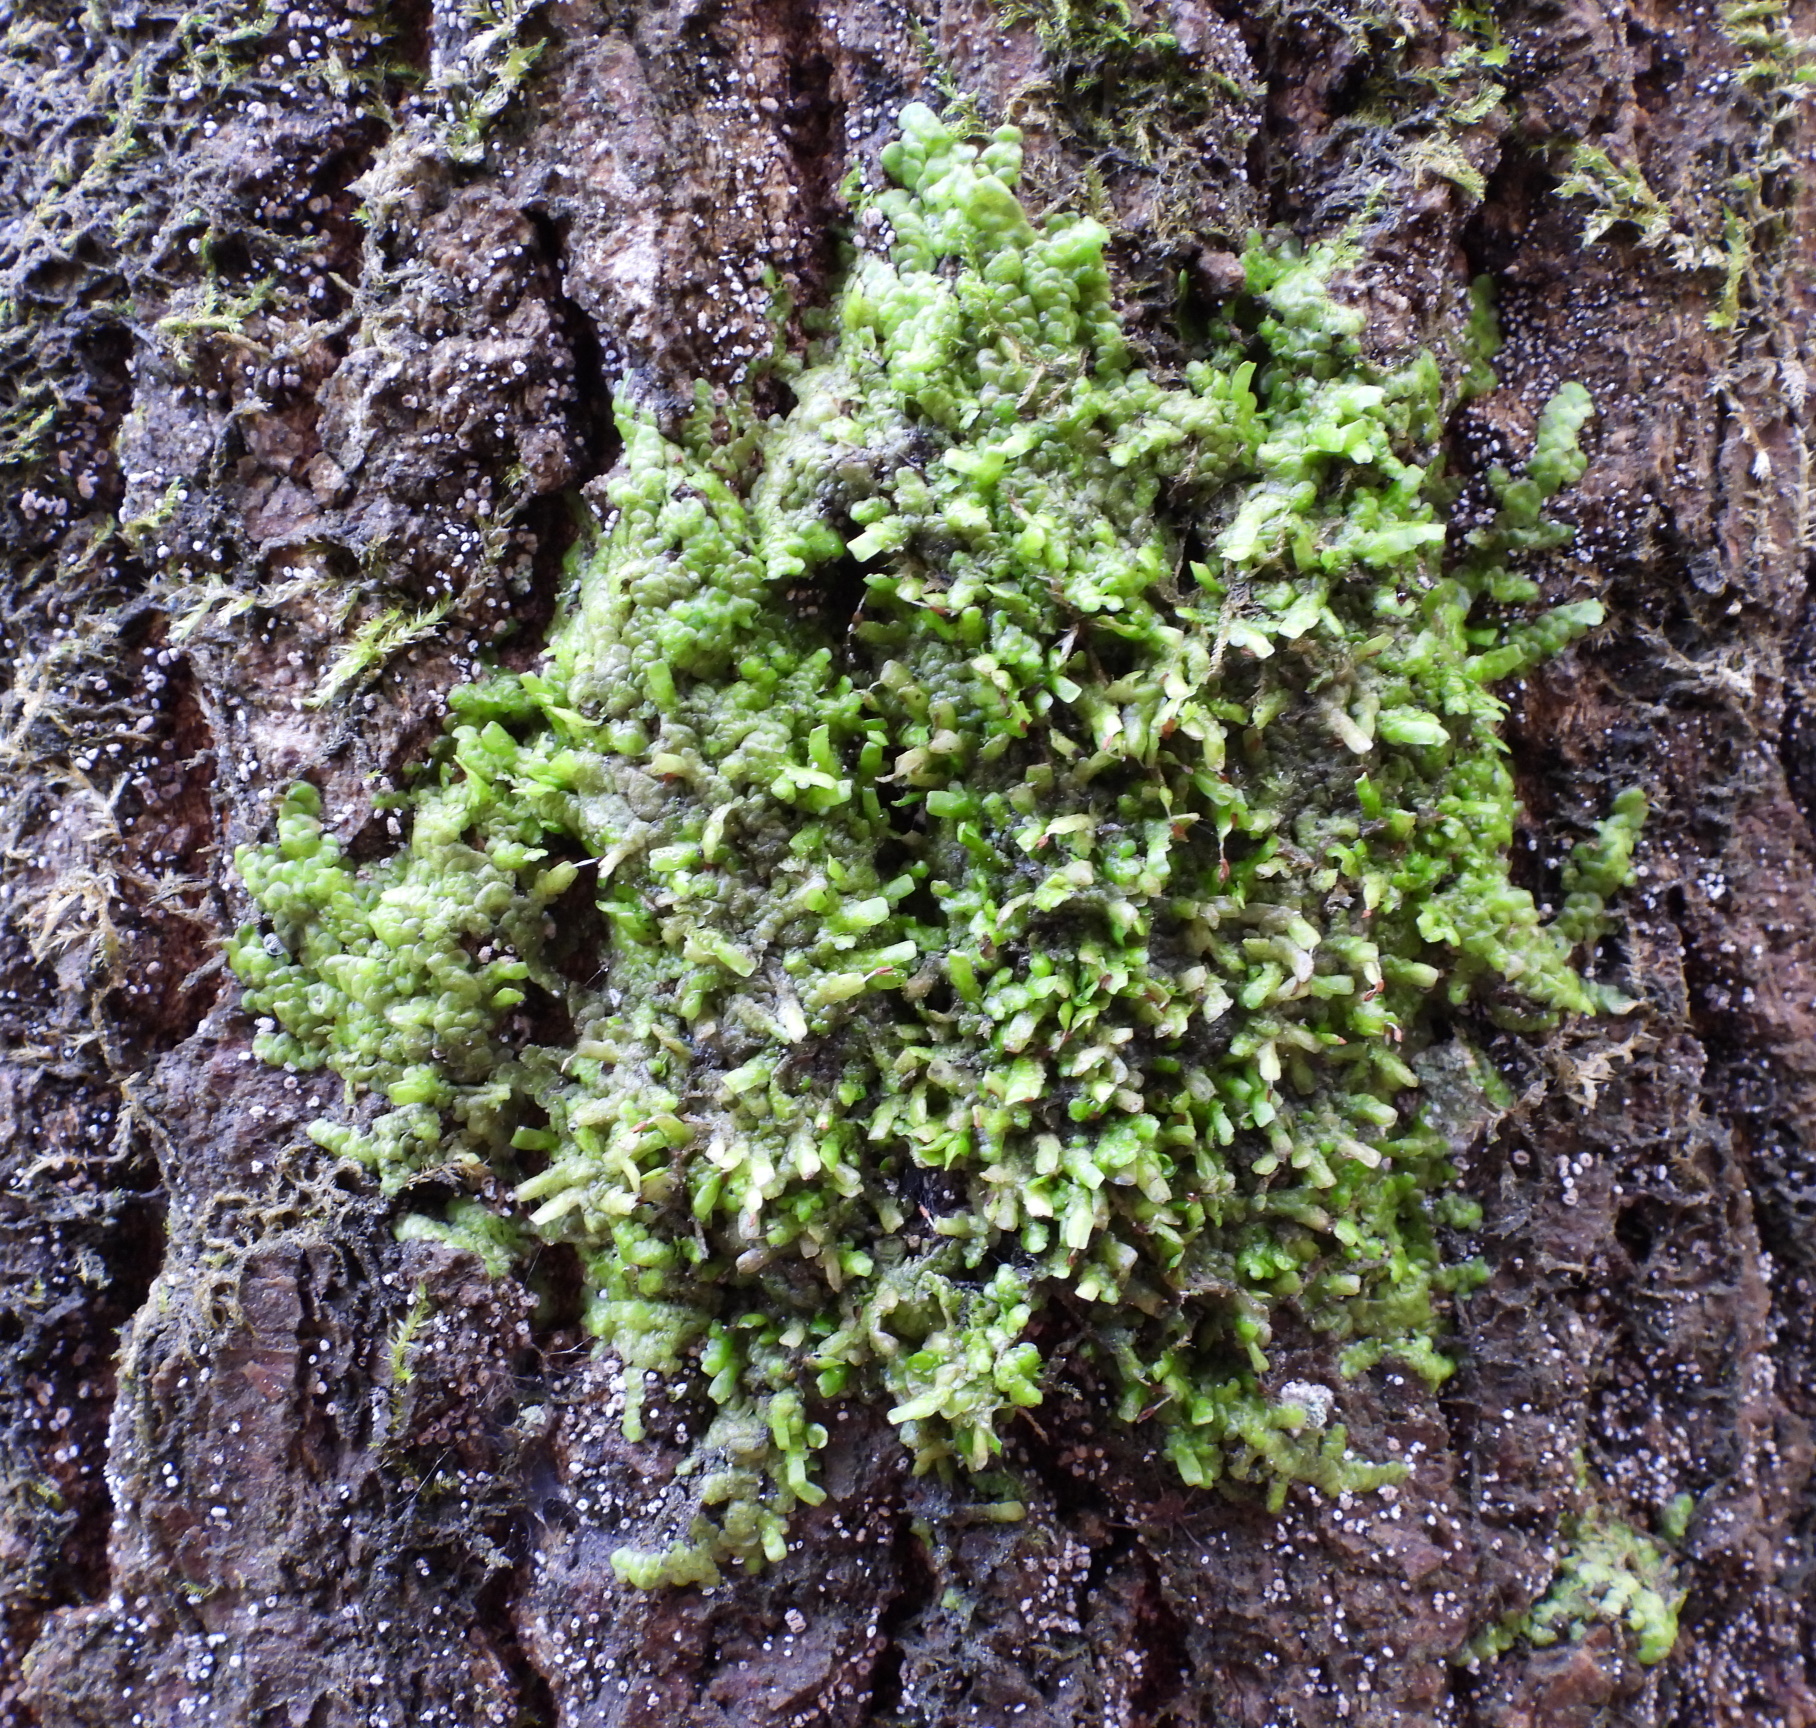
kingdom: Plantae
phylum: Marchantiophyta
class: Jungermanniopsida
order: Porellales
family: Radulaceae
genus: Radula
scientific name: Radula complanata
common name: Flat-leaved scalewort
